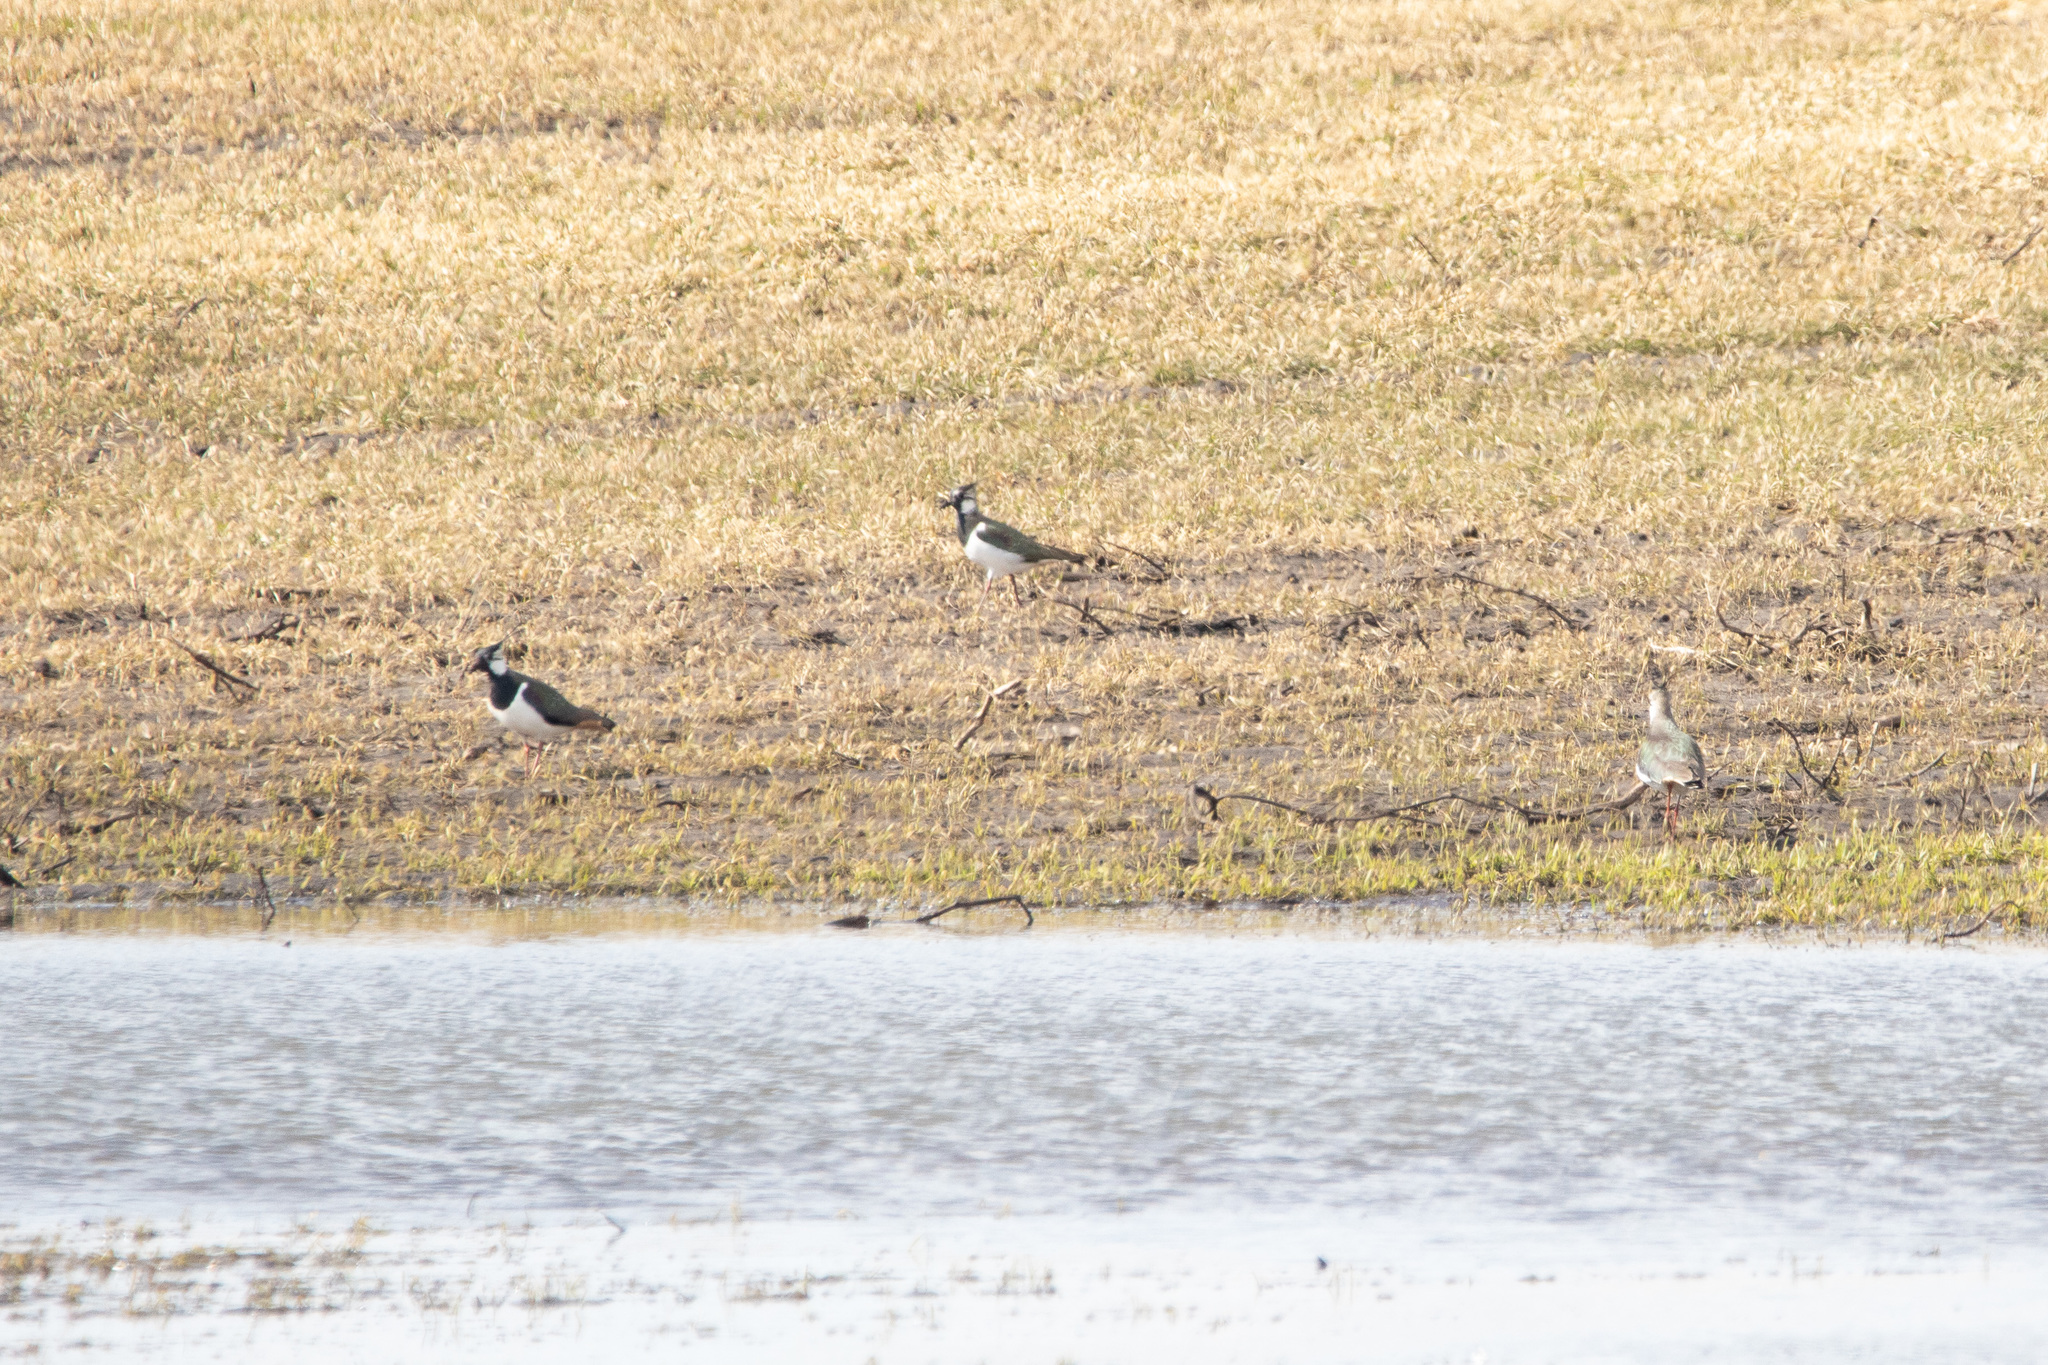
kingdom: Animalia
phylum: Chordata
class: Aves
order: Charadriiformes
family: Charadriidae
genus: Vanellus
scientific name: Vanellus vanellus
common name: Northern lapwing
